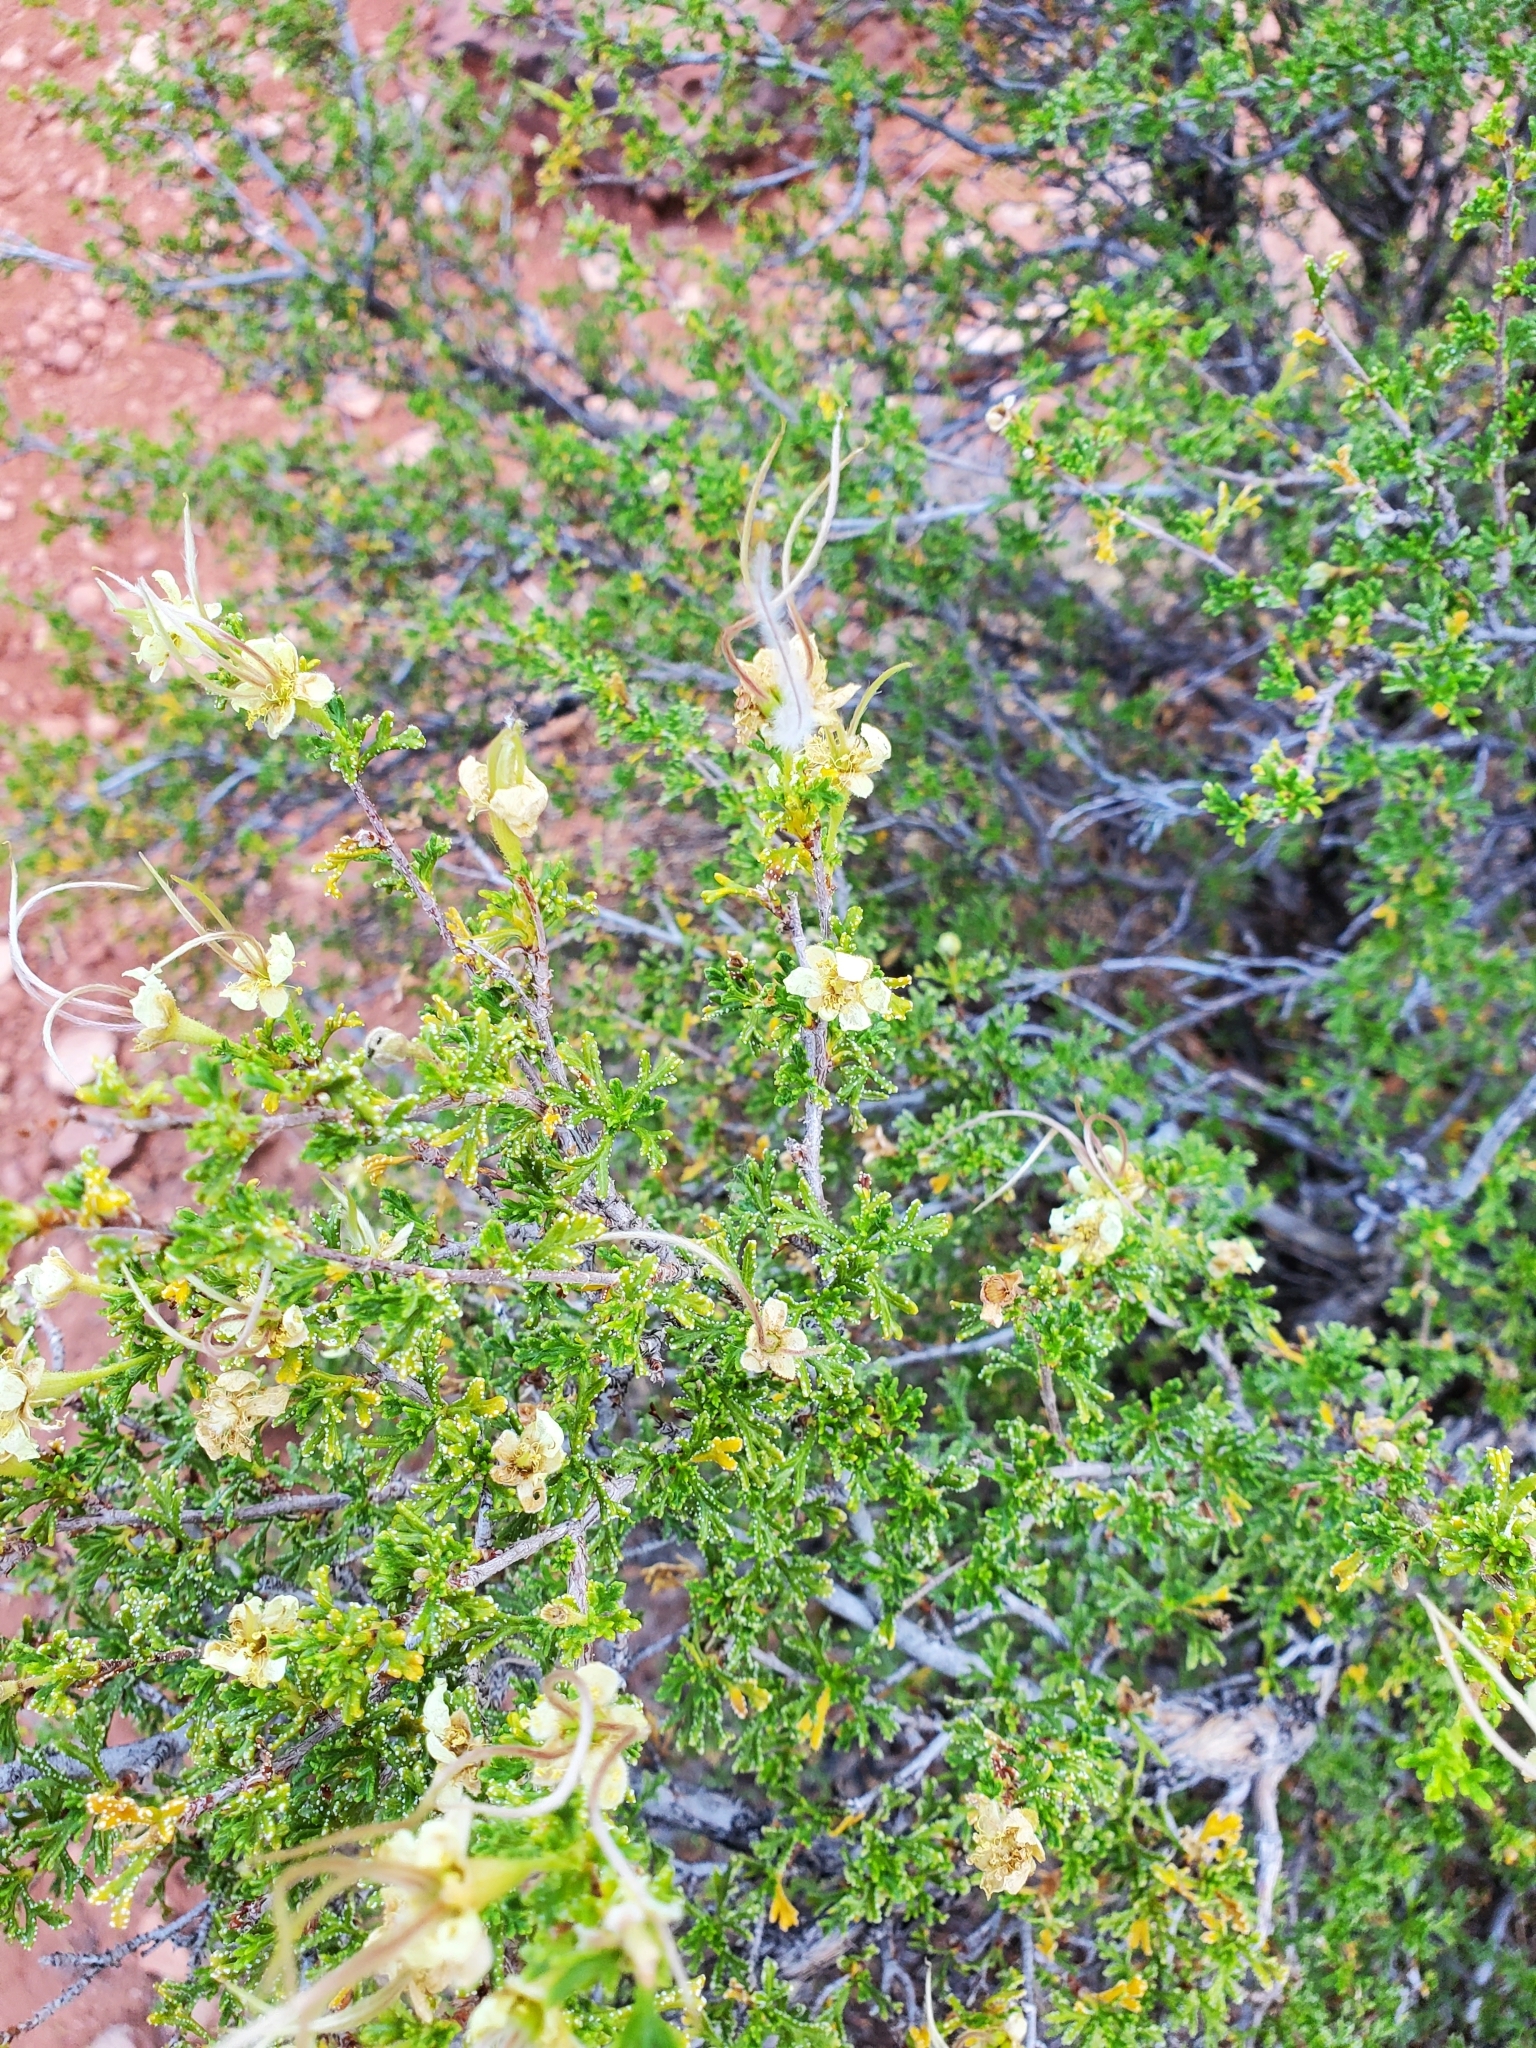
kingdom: Plantae
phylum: Tracheophyta
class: Magnoliopsida
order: Rosales
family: Rosaceae
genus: Purshia
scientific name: Purshia stansburiana
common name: Stansbury's cliffrose
